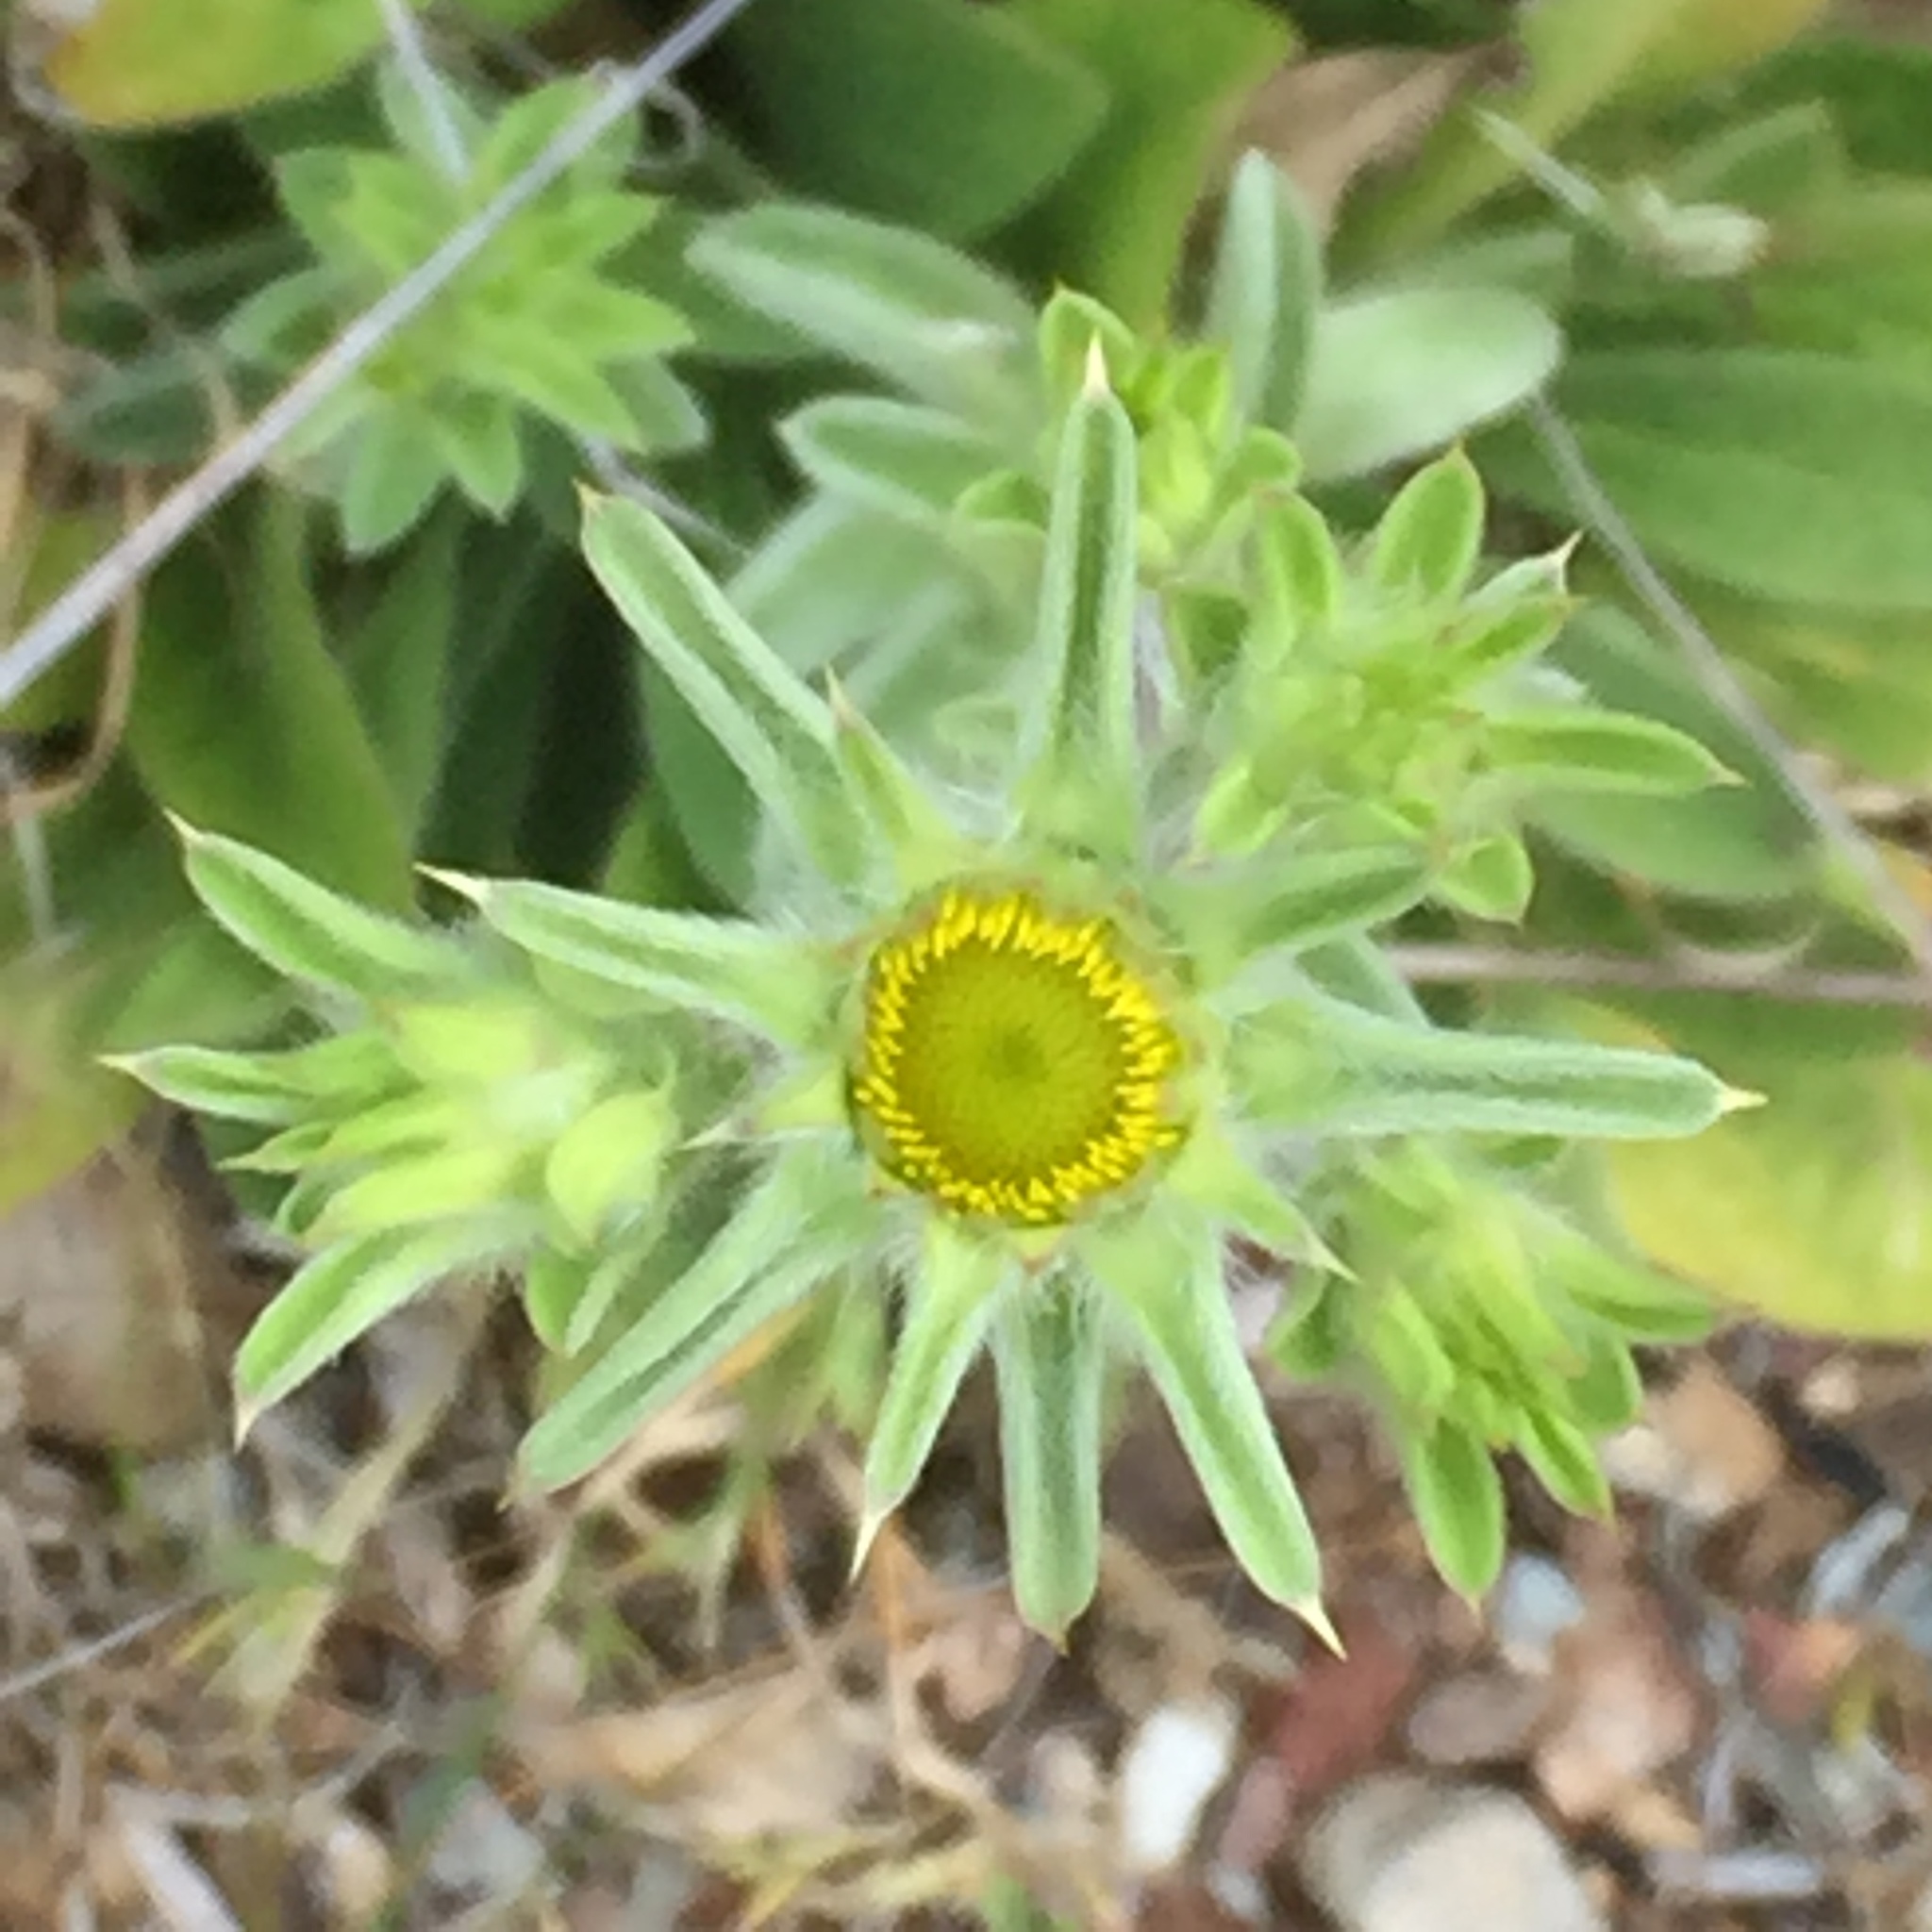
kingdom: Plantae
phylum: Tracheophyta
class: Magnoliopsida
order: Asterales
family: Asteraceae
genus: Pallenis
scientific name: Pallenis spinosa
